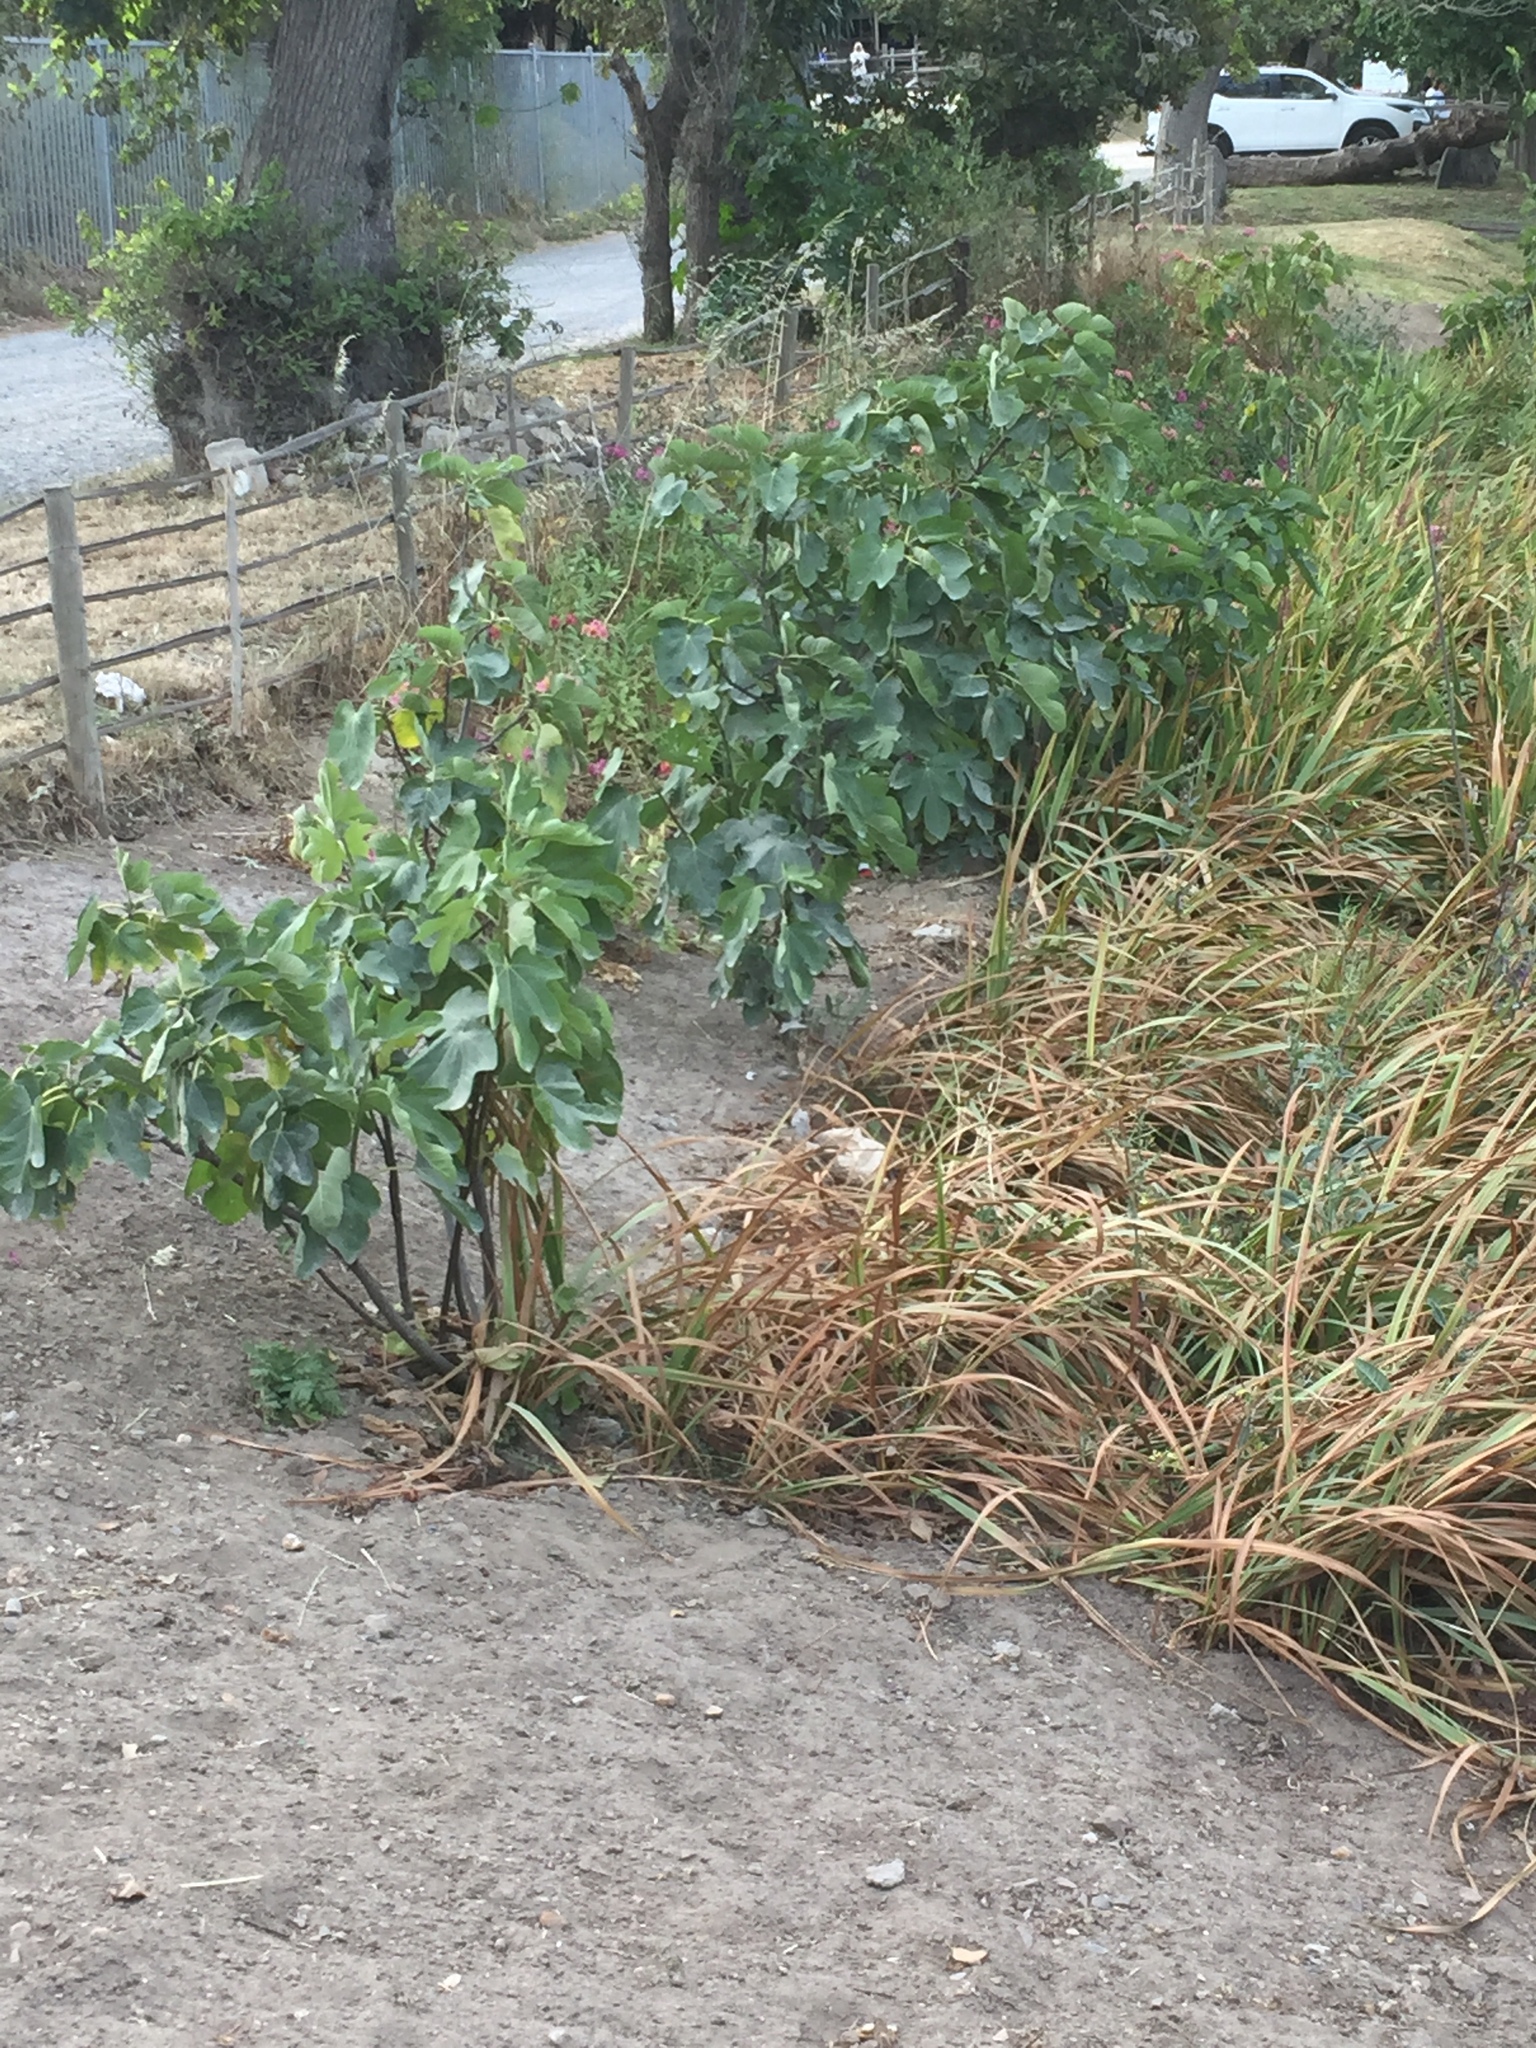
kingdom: Plantae
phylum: Tracheophyta
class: Magnoliopsida
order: Rosales
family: Moraceae
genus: Ficus
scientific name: Ficus carica
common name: Fig
